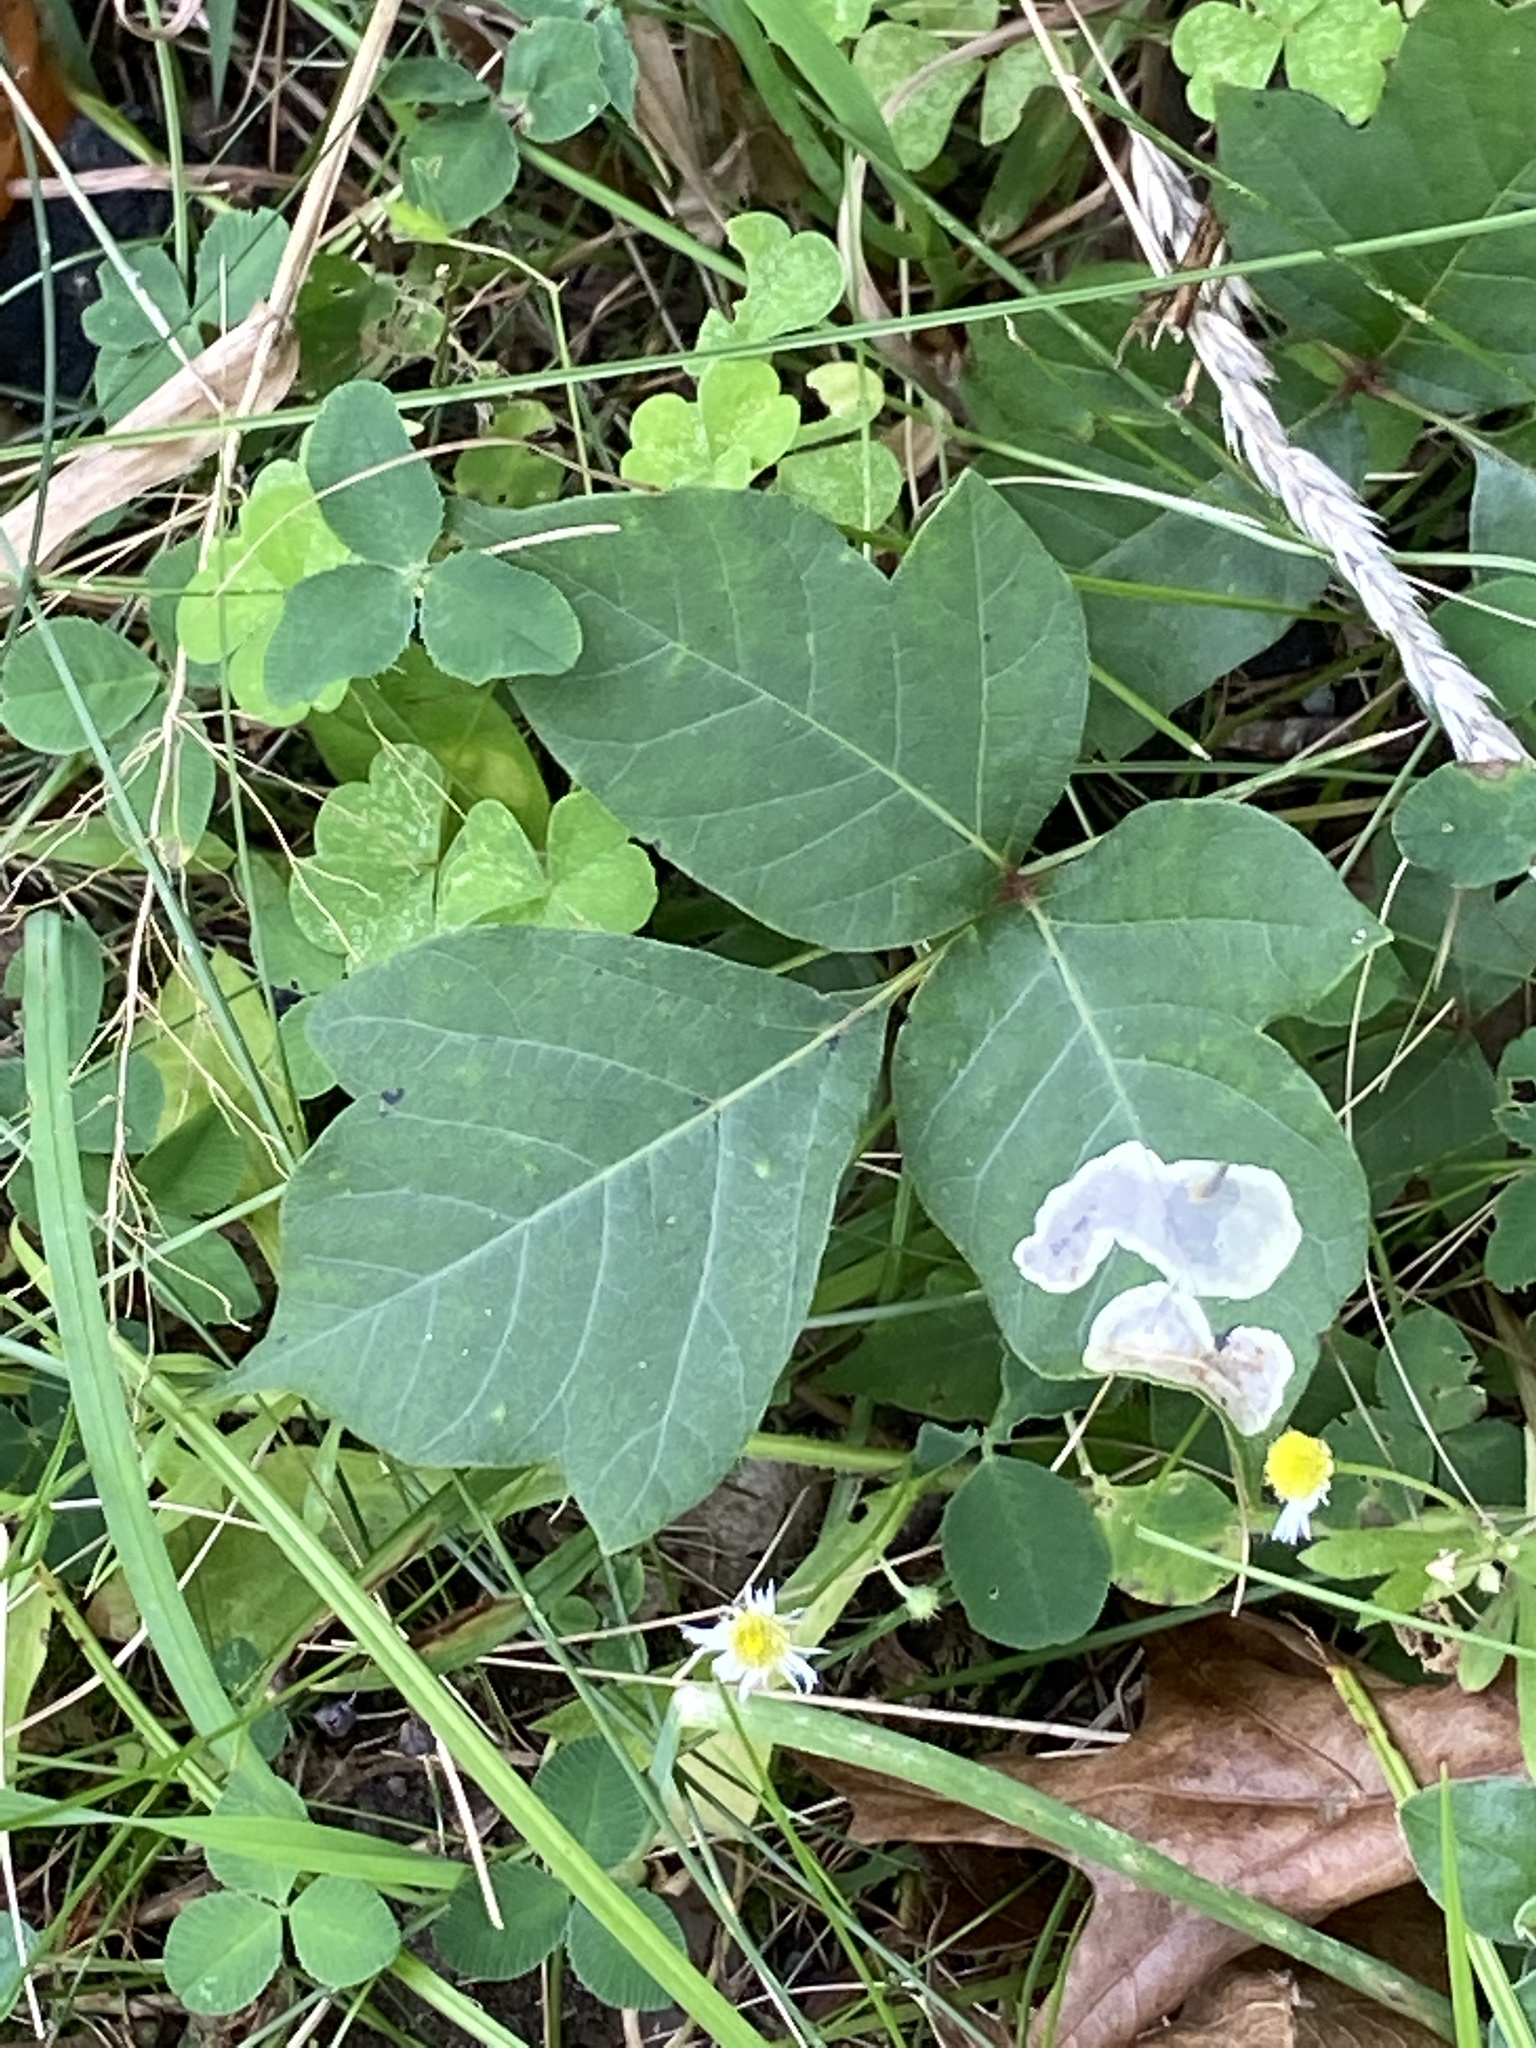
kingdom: Animalia
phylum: Arthropoda
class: Insecta
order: Lepidoptera
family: Gracillariidae
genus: Cameraria
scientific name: Cameraria guttifinitella
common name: Poison ivy leaf-miner moth
